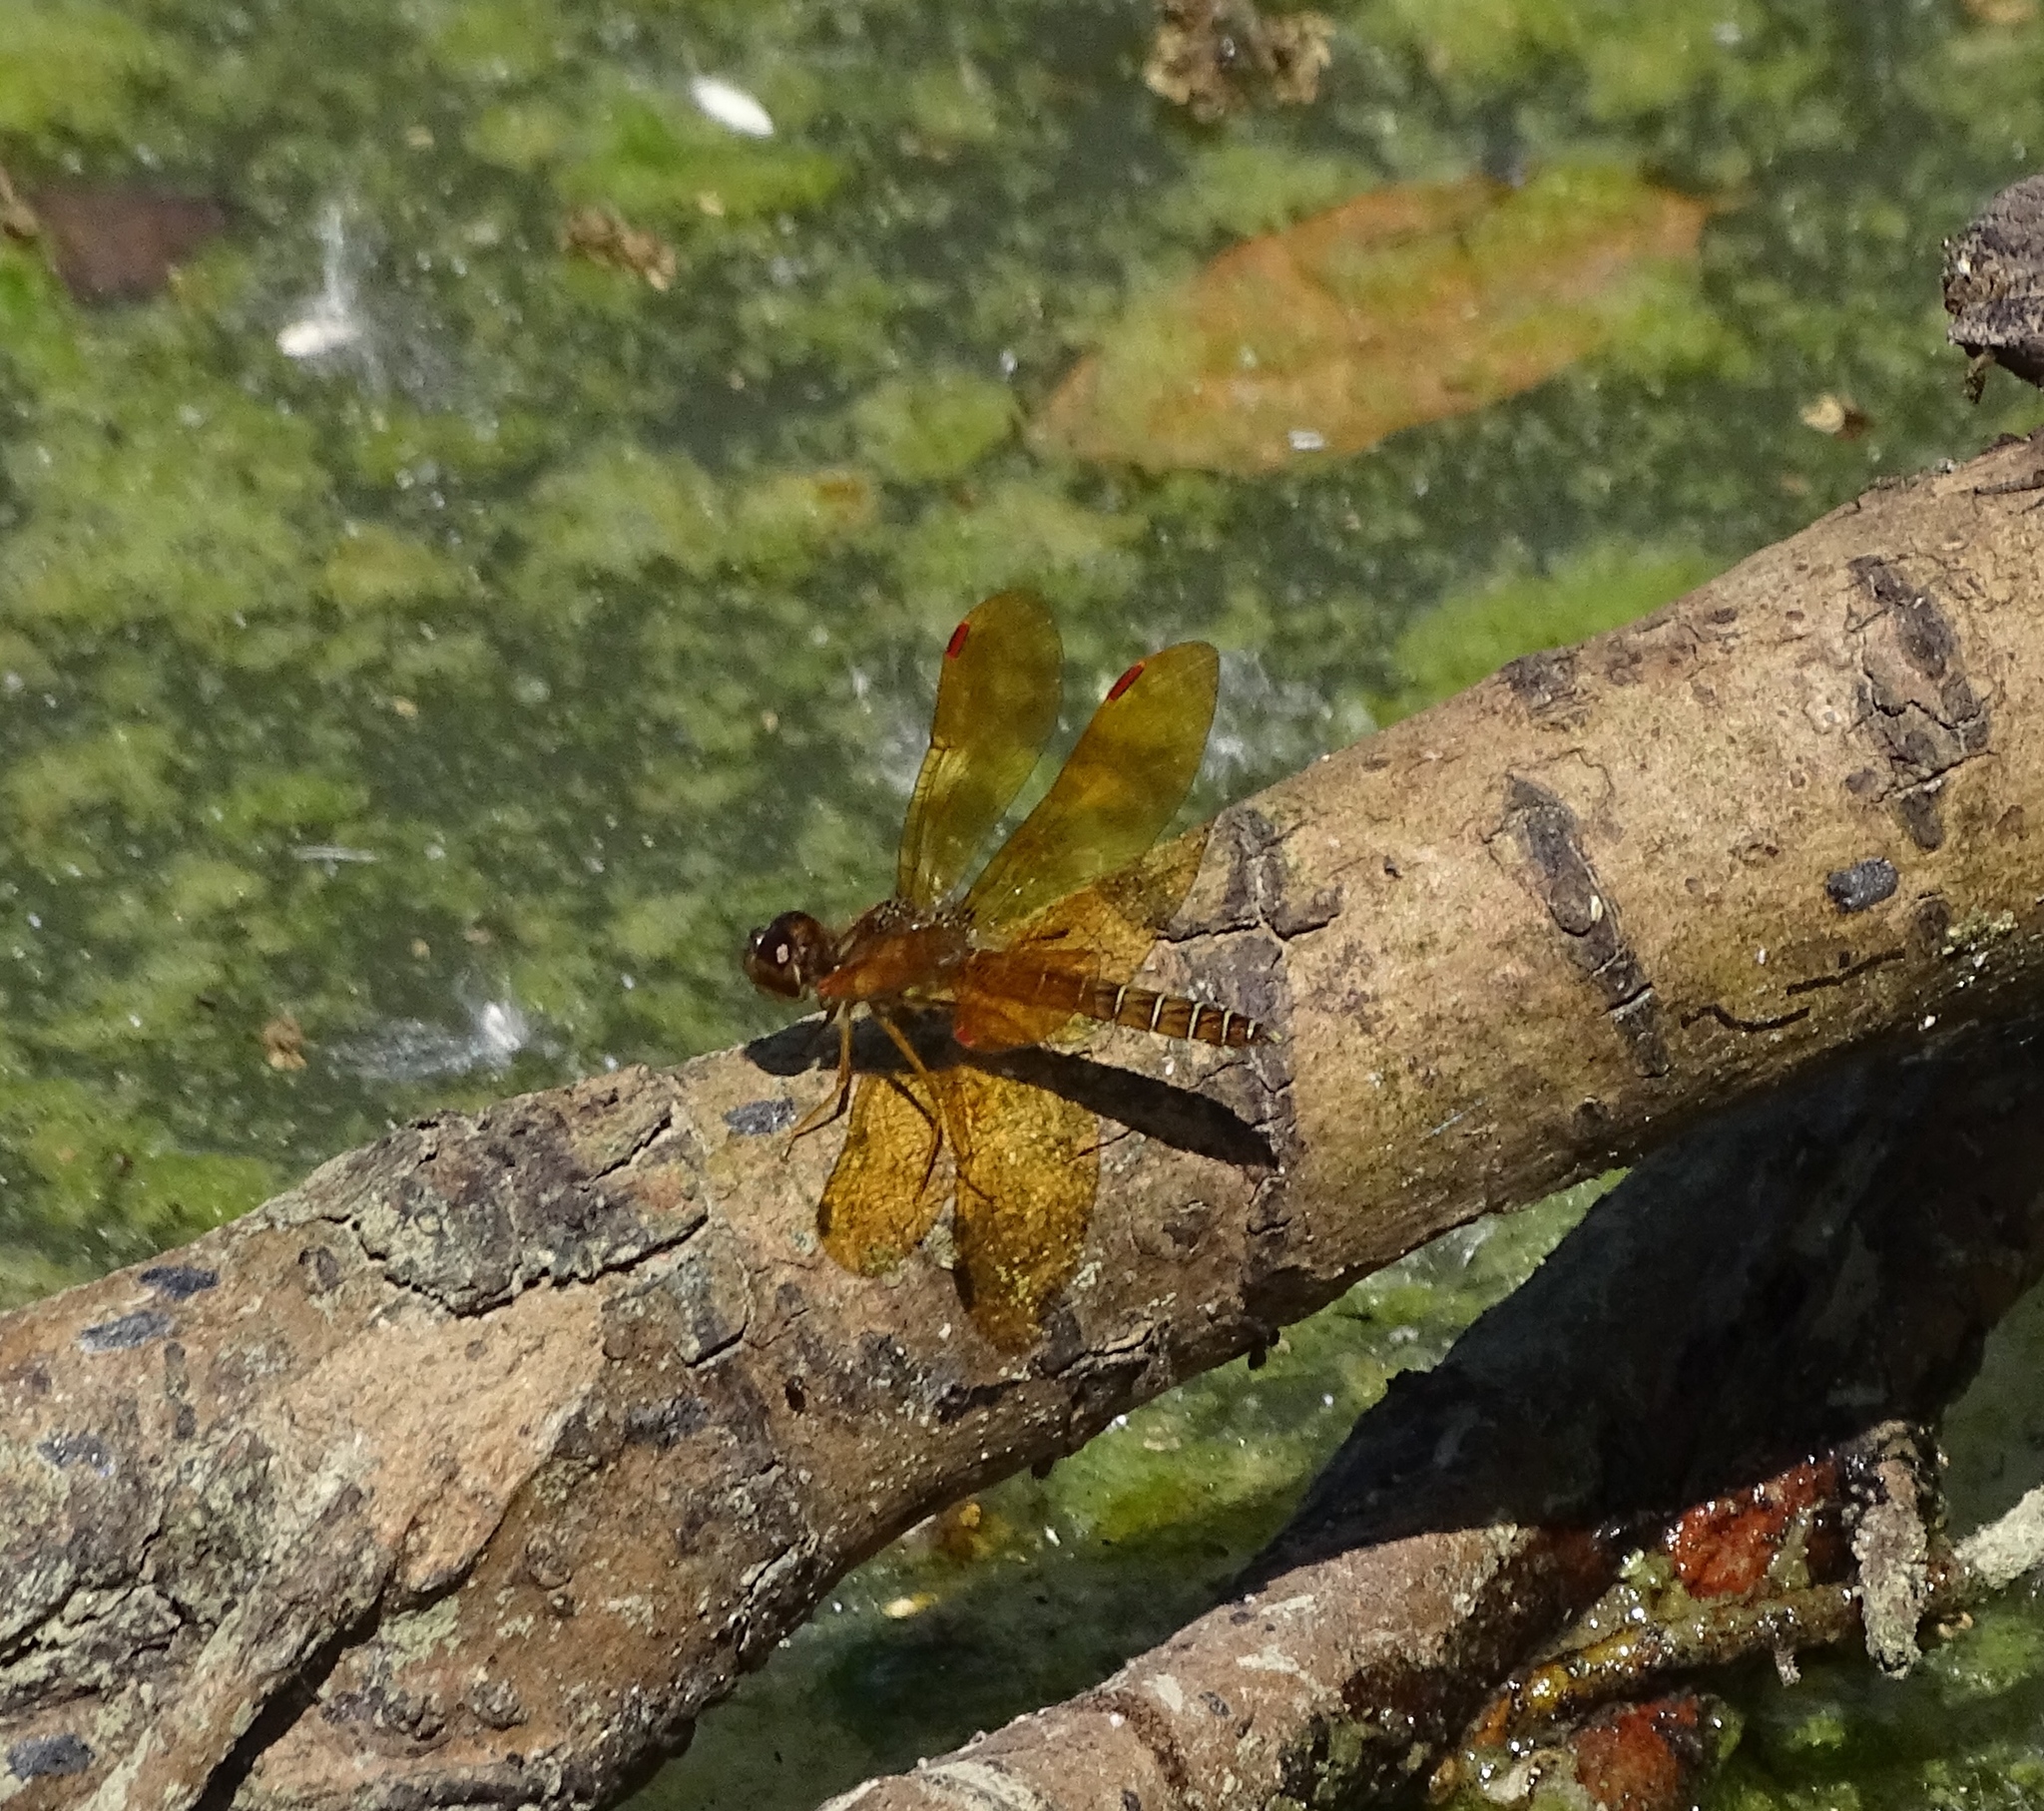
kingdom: Animalia
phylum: Arthropoda
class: Insecta
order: Odonata
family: Libellulidae
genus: Perithemis
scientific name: Perithemis tenera
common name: Eastern amberwing
